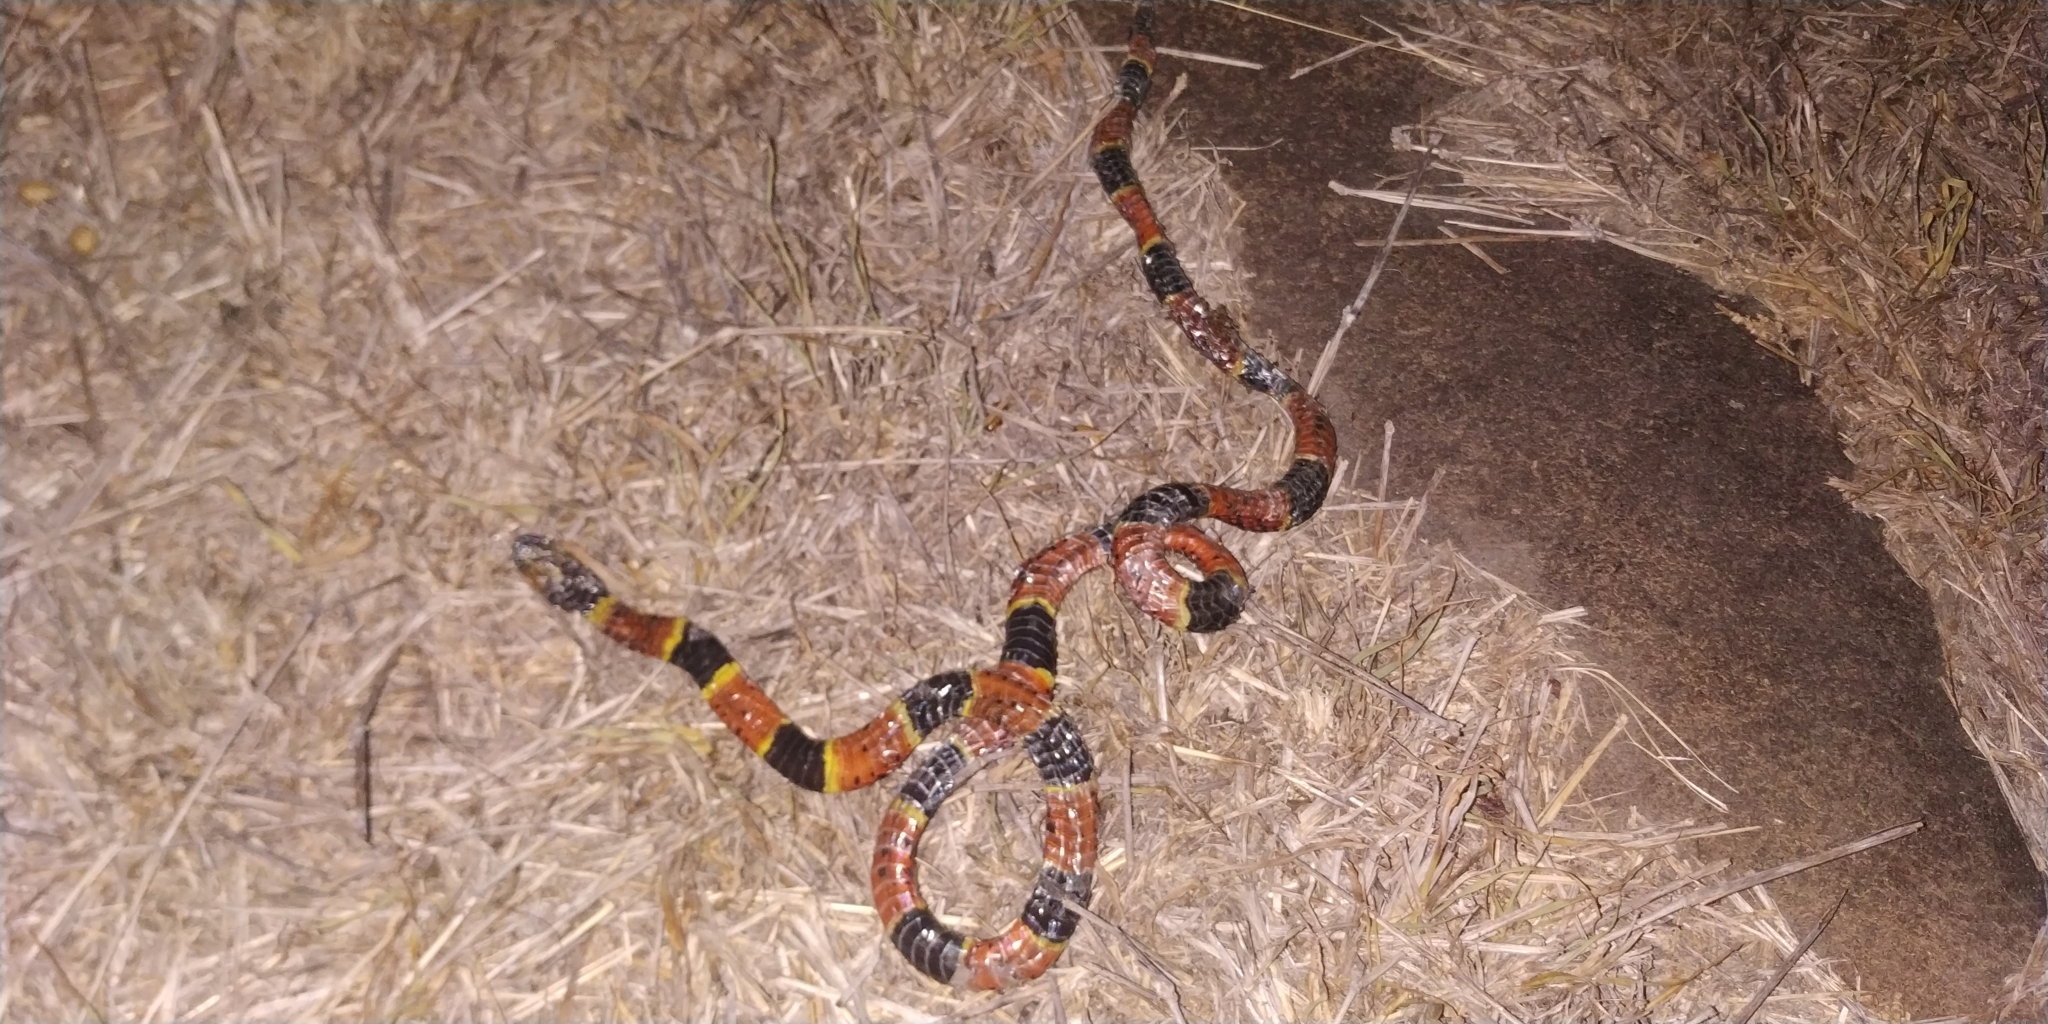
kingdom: Animalia
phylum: Chordata
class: Squamata
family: Elapidae
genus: Micrurus
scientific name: Micrurus tener
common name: Texas coral snake
